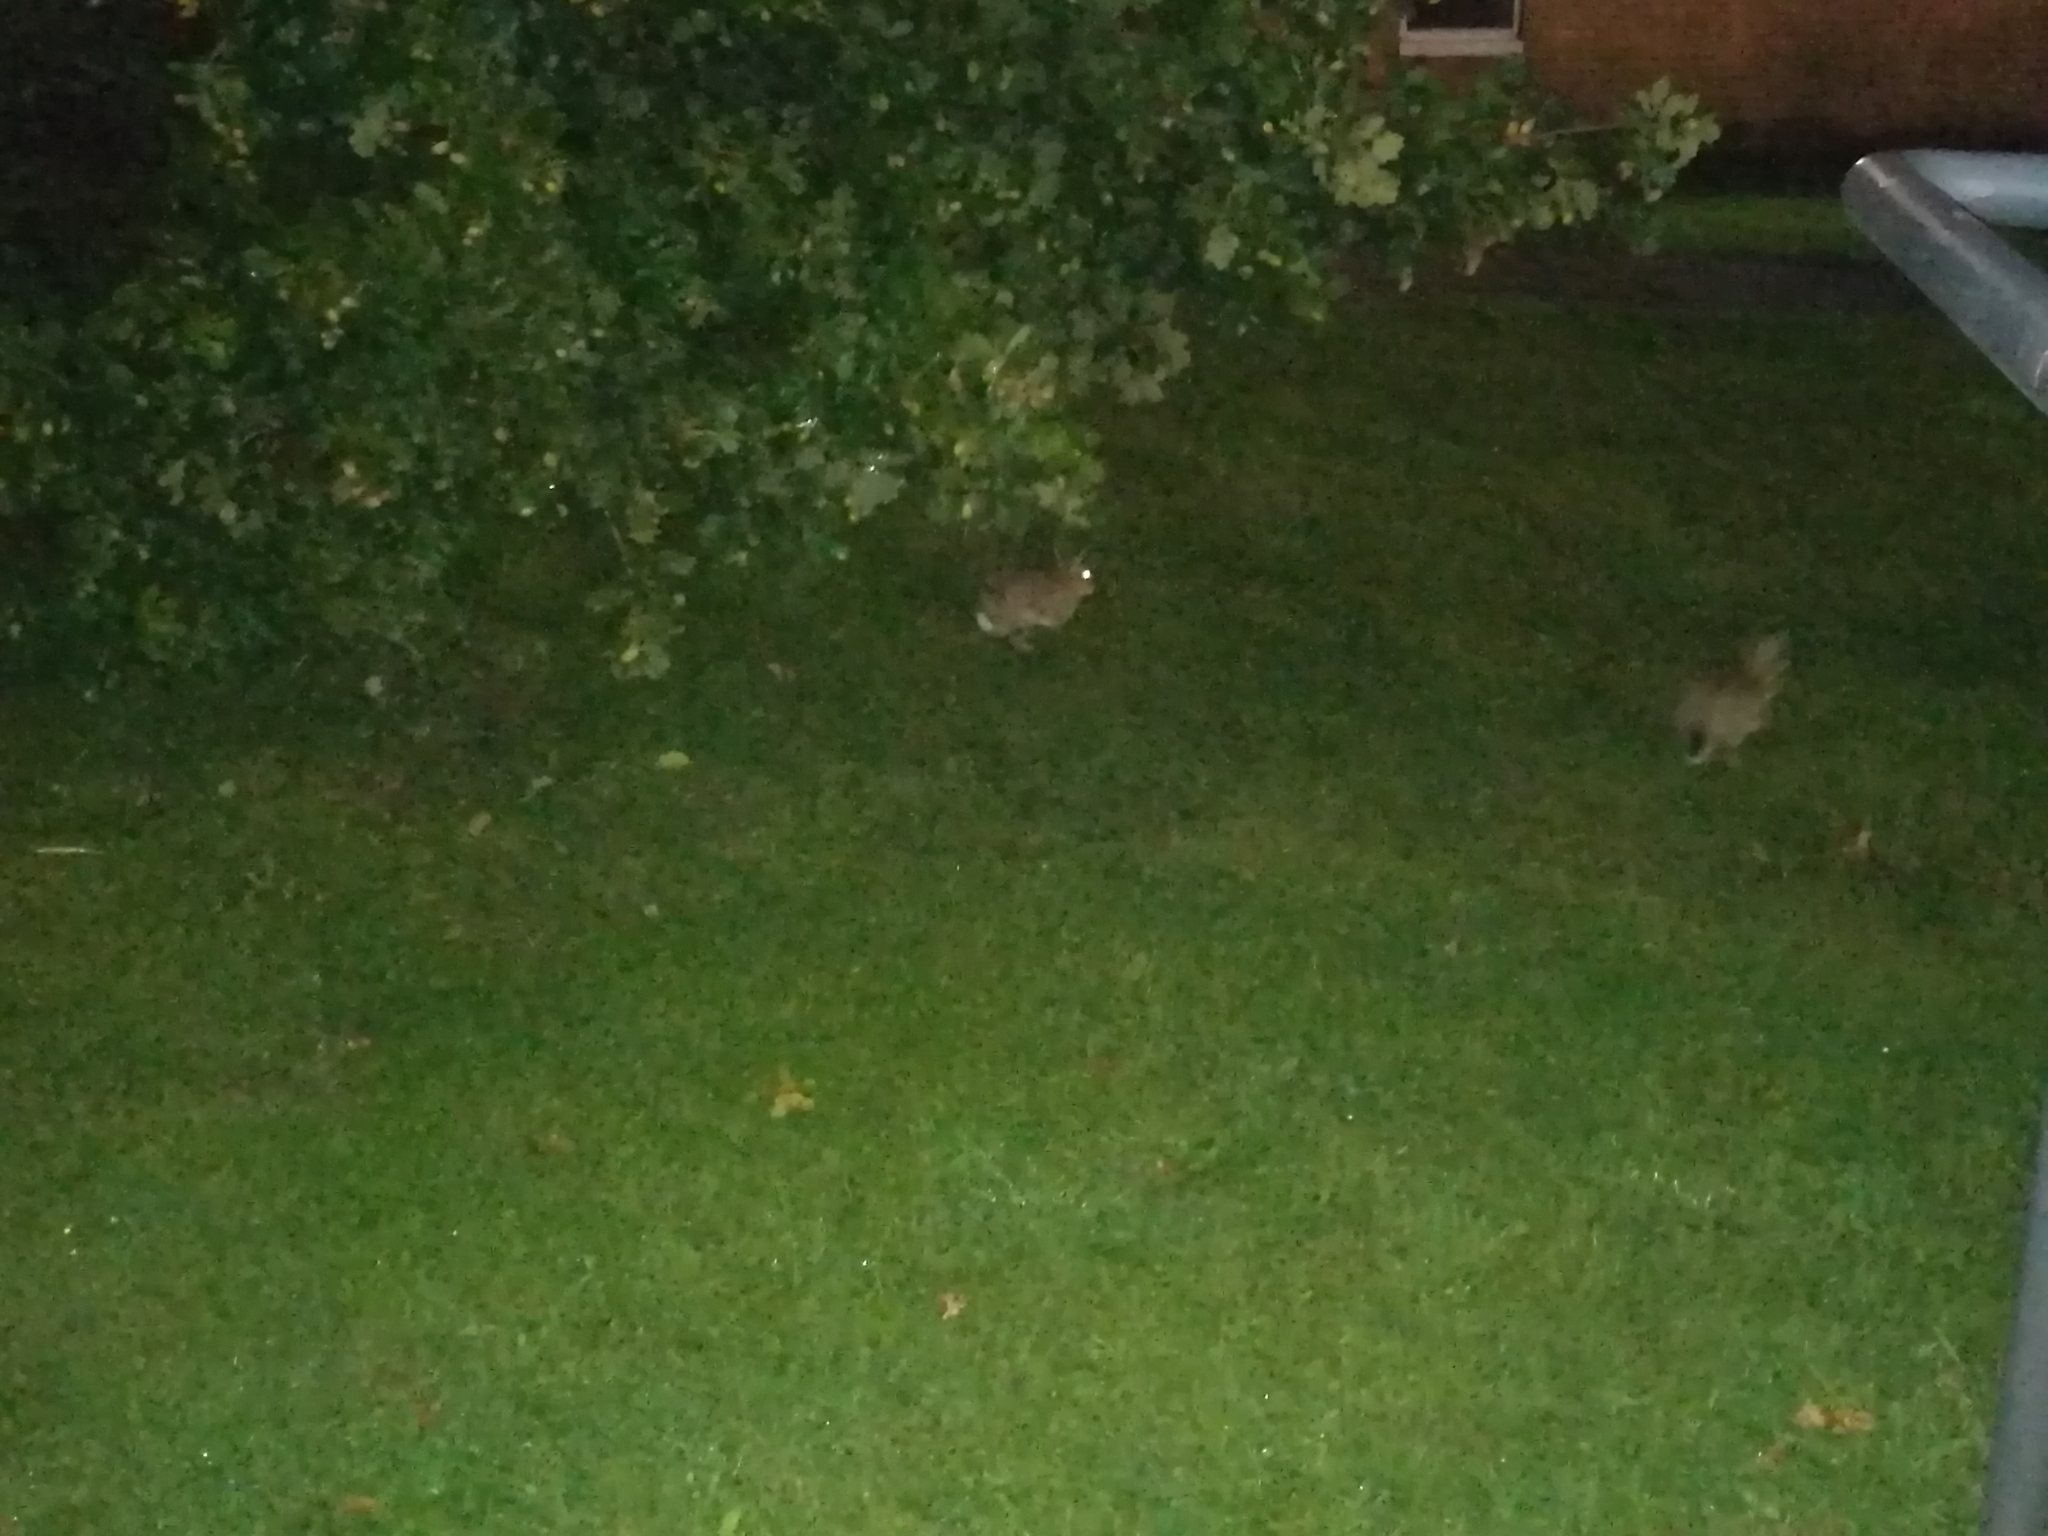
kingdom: Animalia
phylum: Chordata
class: Mammalia
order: Lagomorpha
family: Leporidae
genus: Oryctolagus
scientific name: Oryctolagus cuniculus
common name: European rabbit
